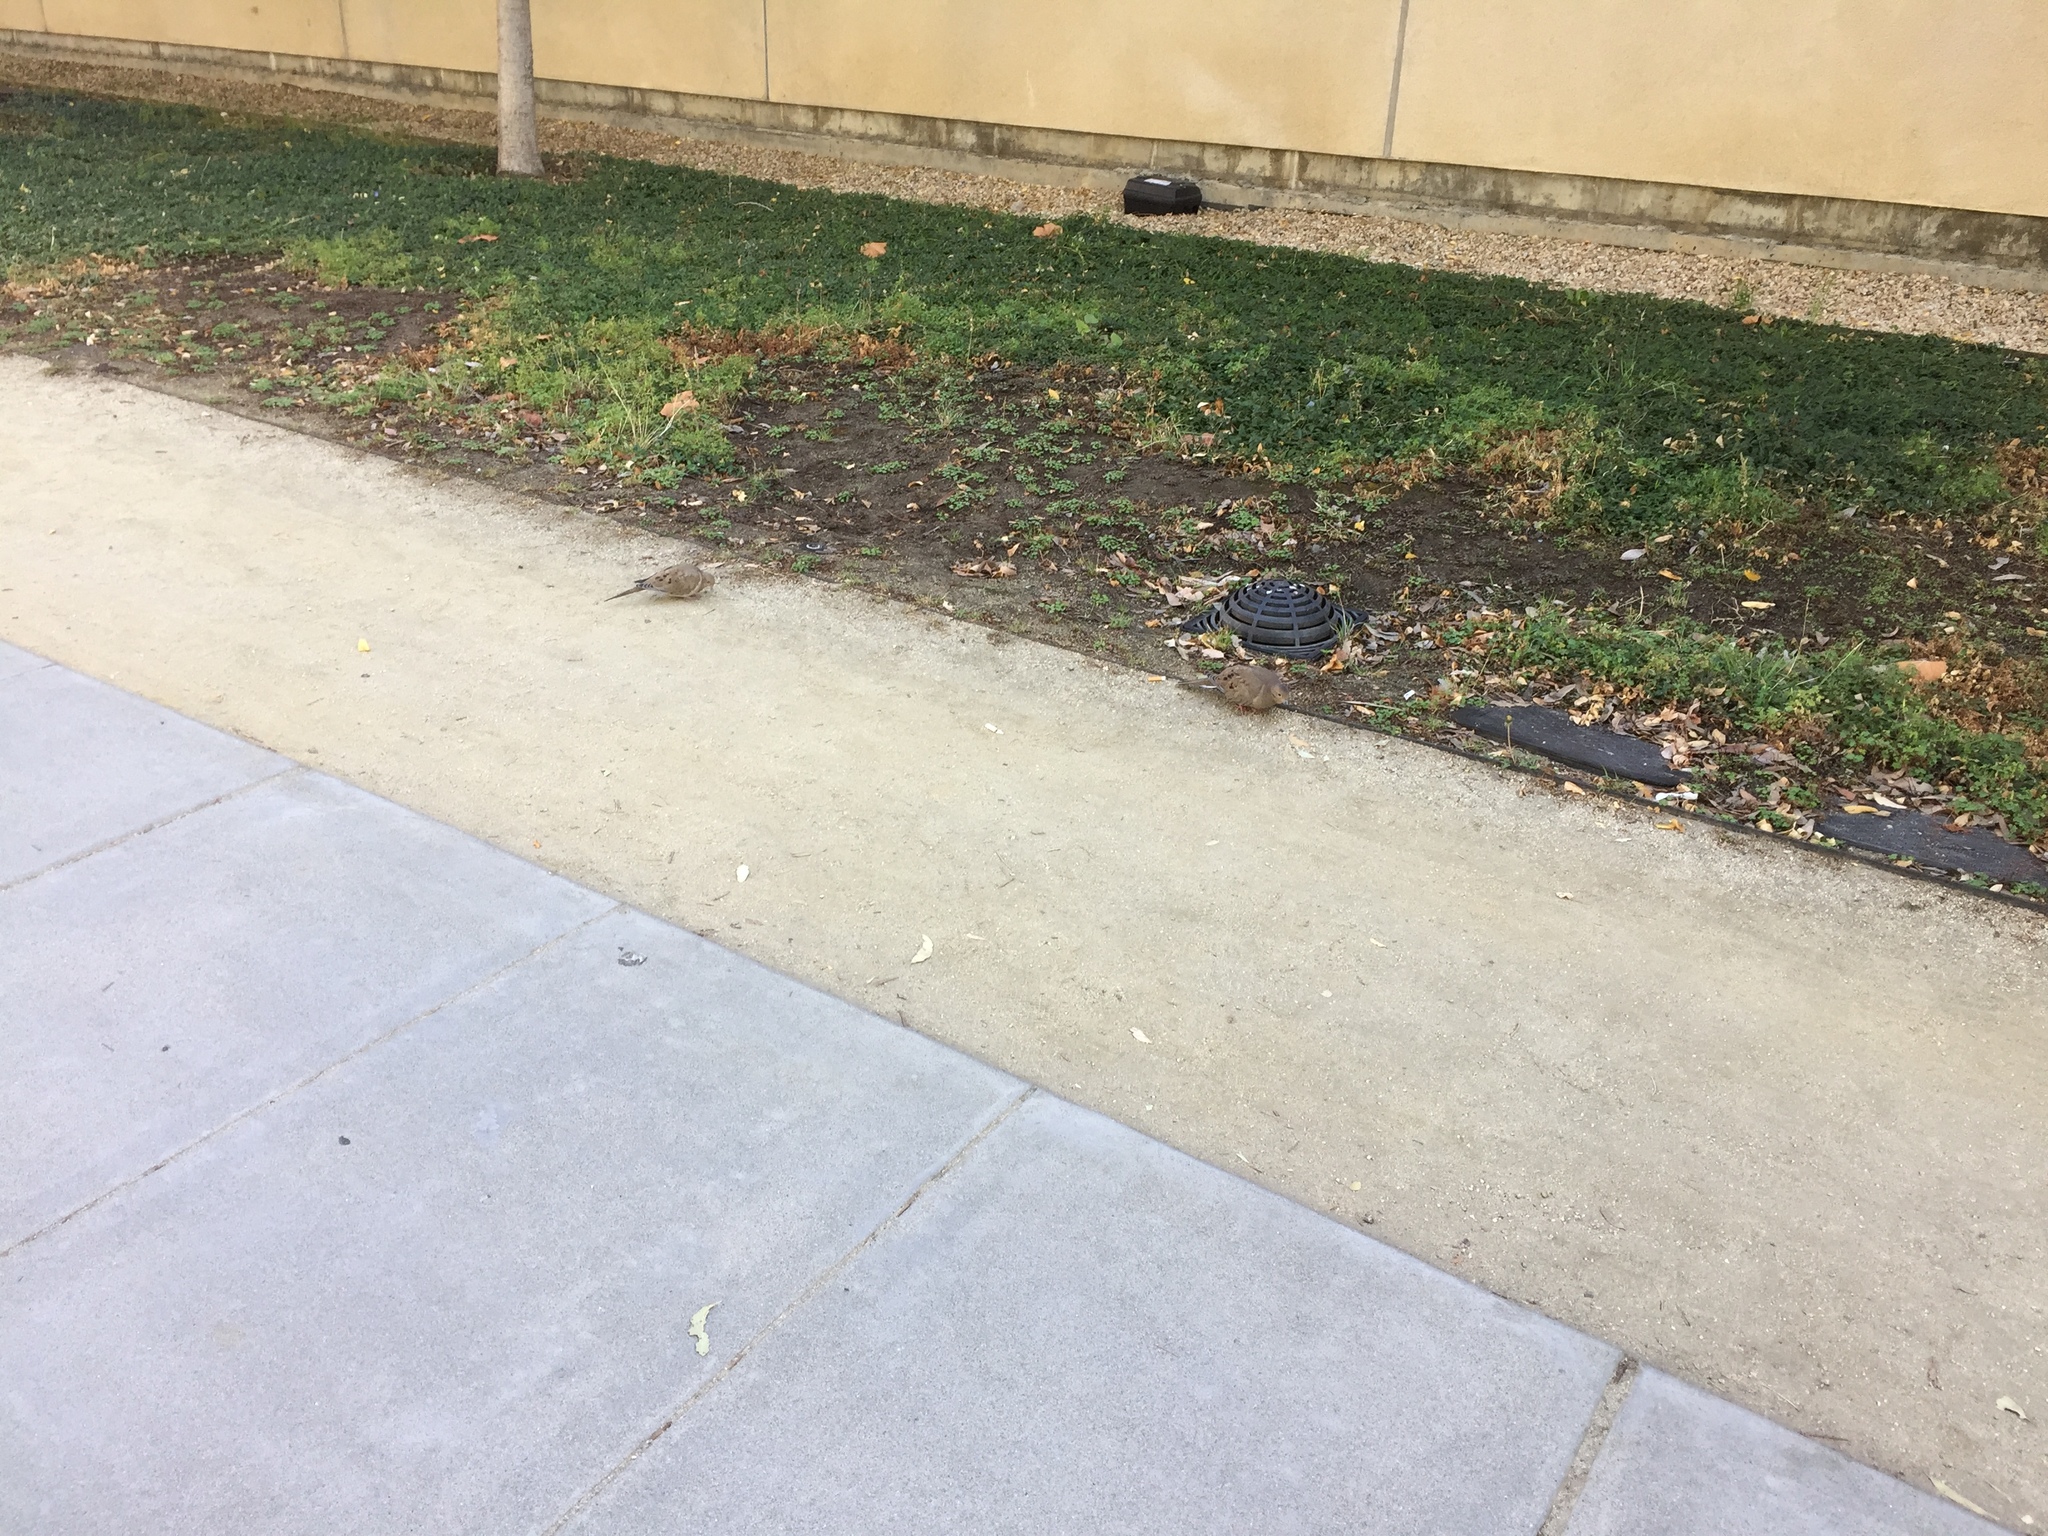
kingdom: Animalia
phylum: Chordata
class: Aves
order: Columbiformes
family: Columbidae
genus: Zenaida
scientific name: Zenaida macroura
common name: Mourning dove
